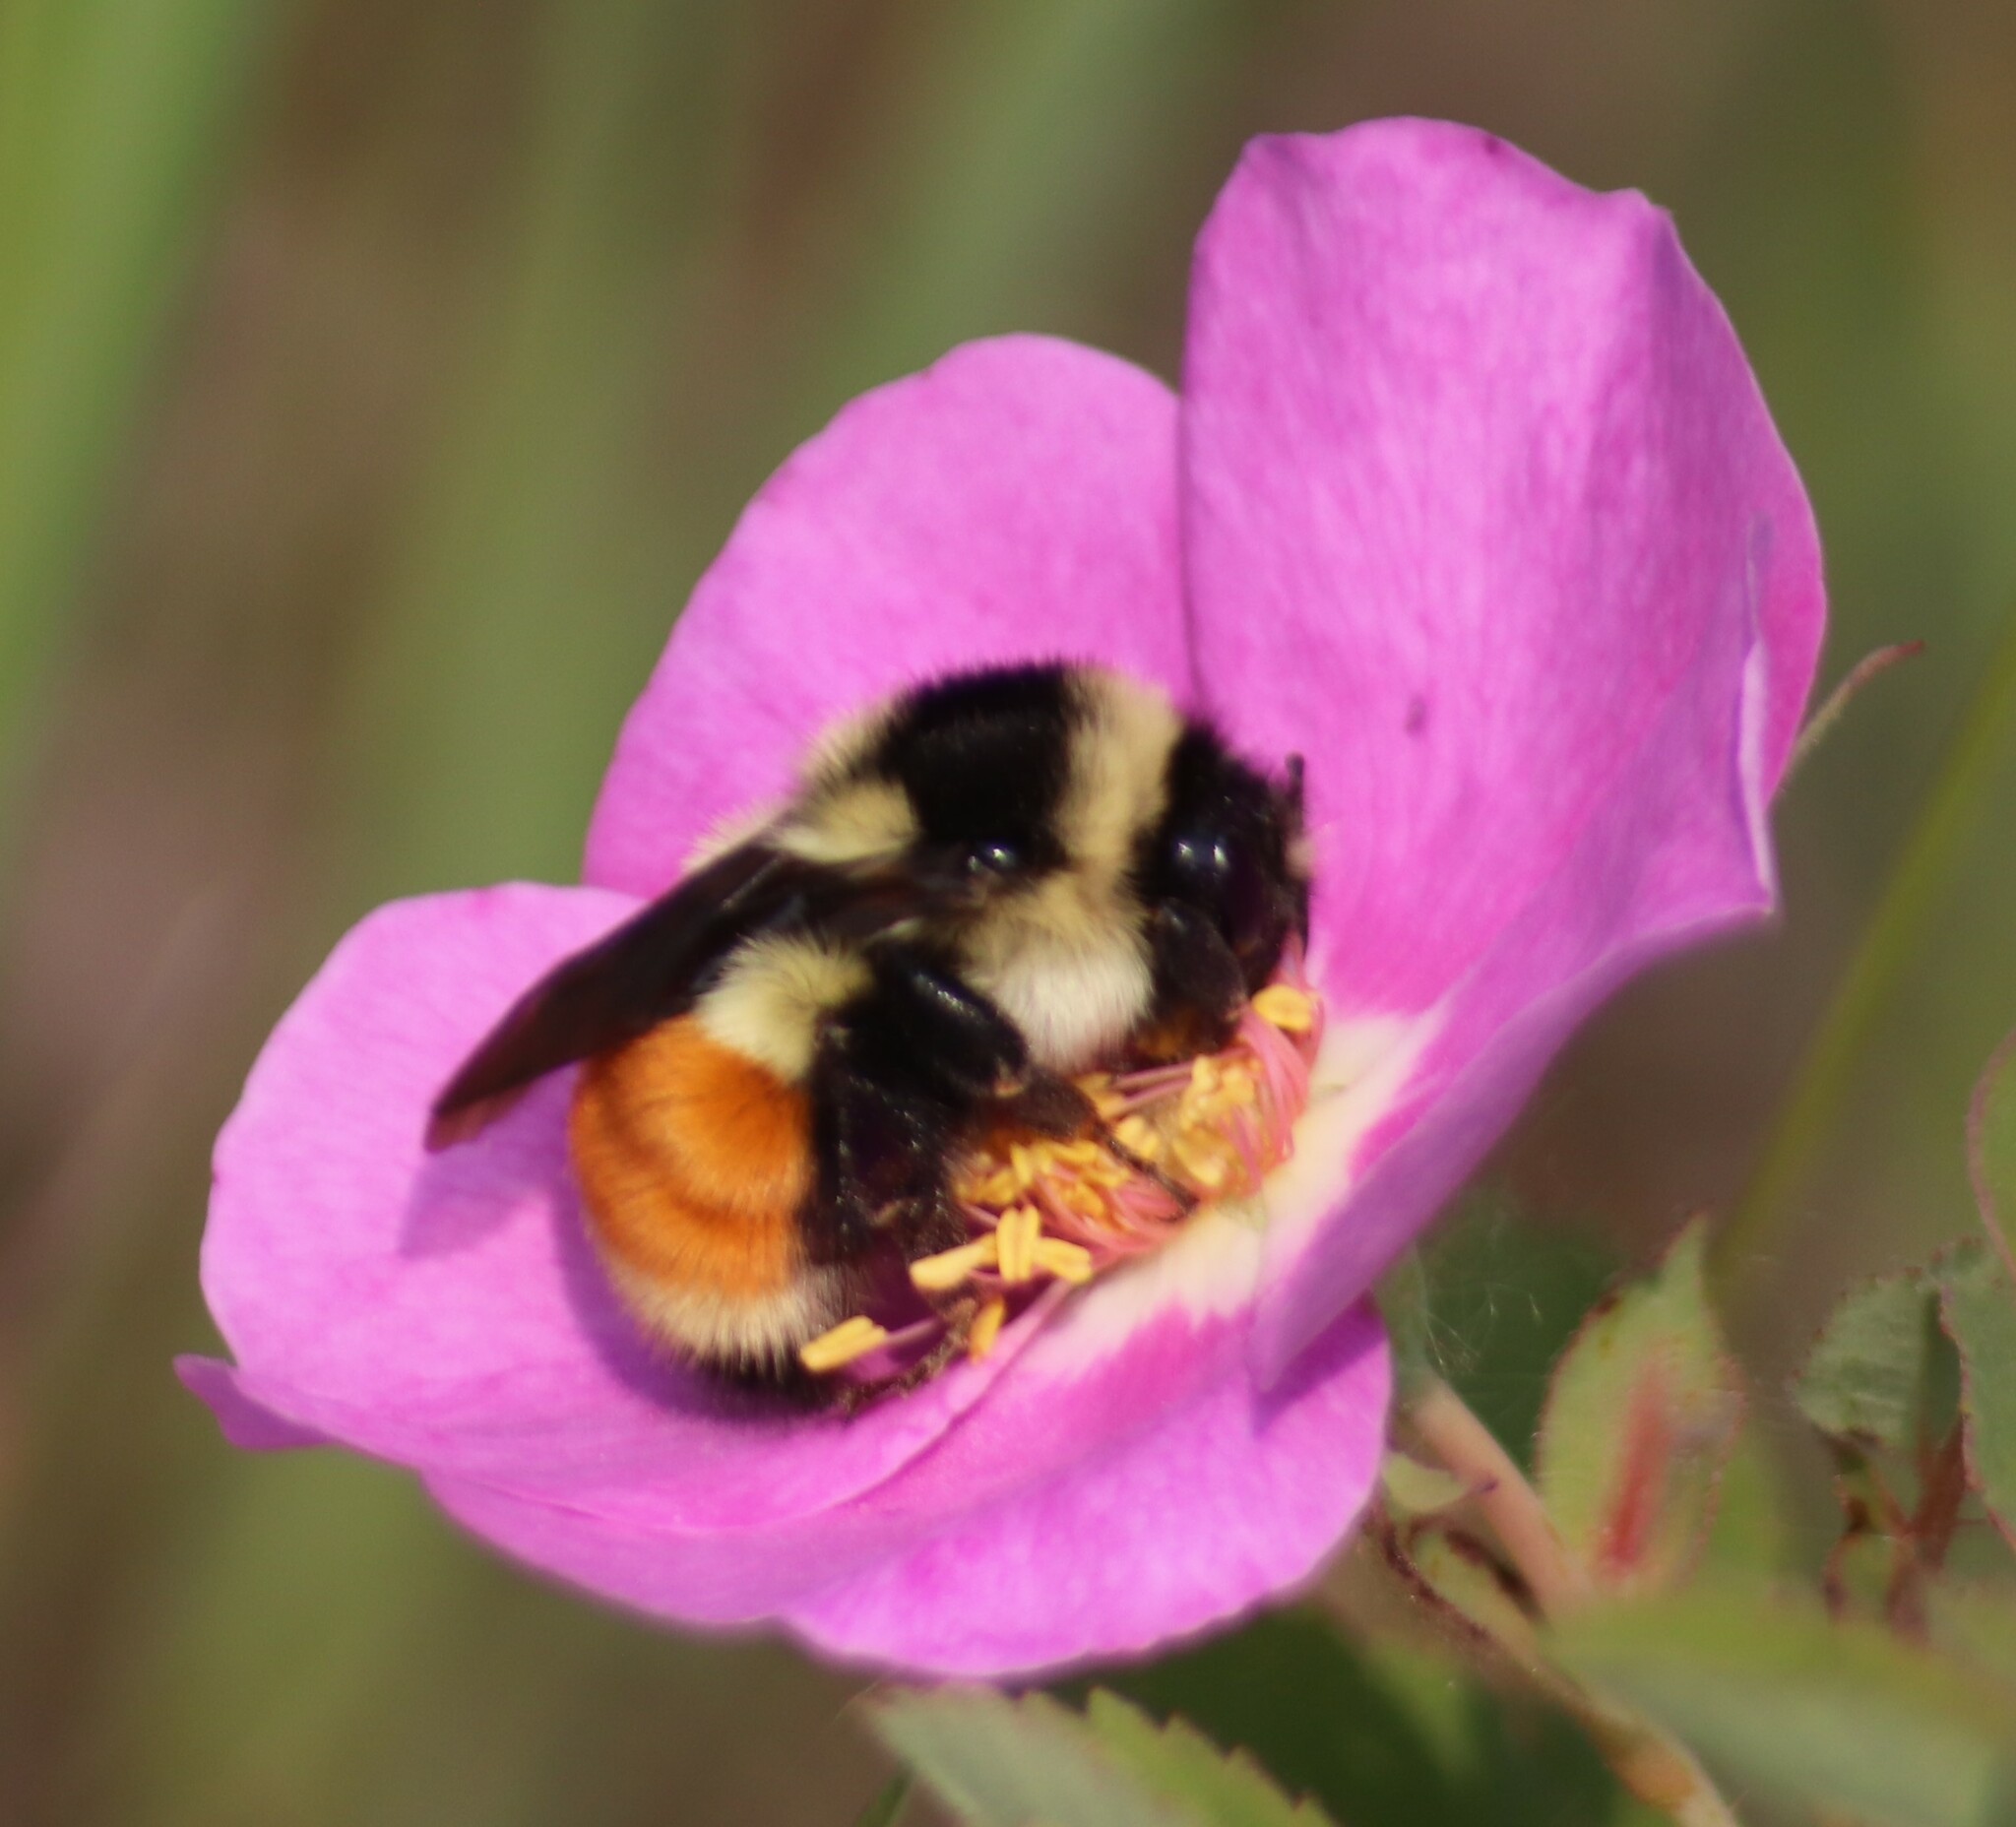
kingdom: Animalia
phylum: Arthropoda
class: Insecta
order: Hymenoptera
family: Apidae
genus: Bombus
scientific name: Bombus ternarius
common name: Tri-colored bumble bee
